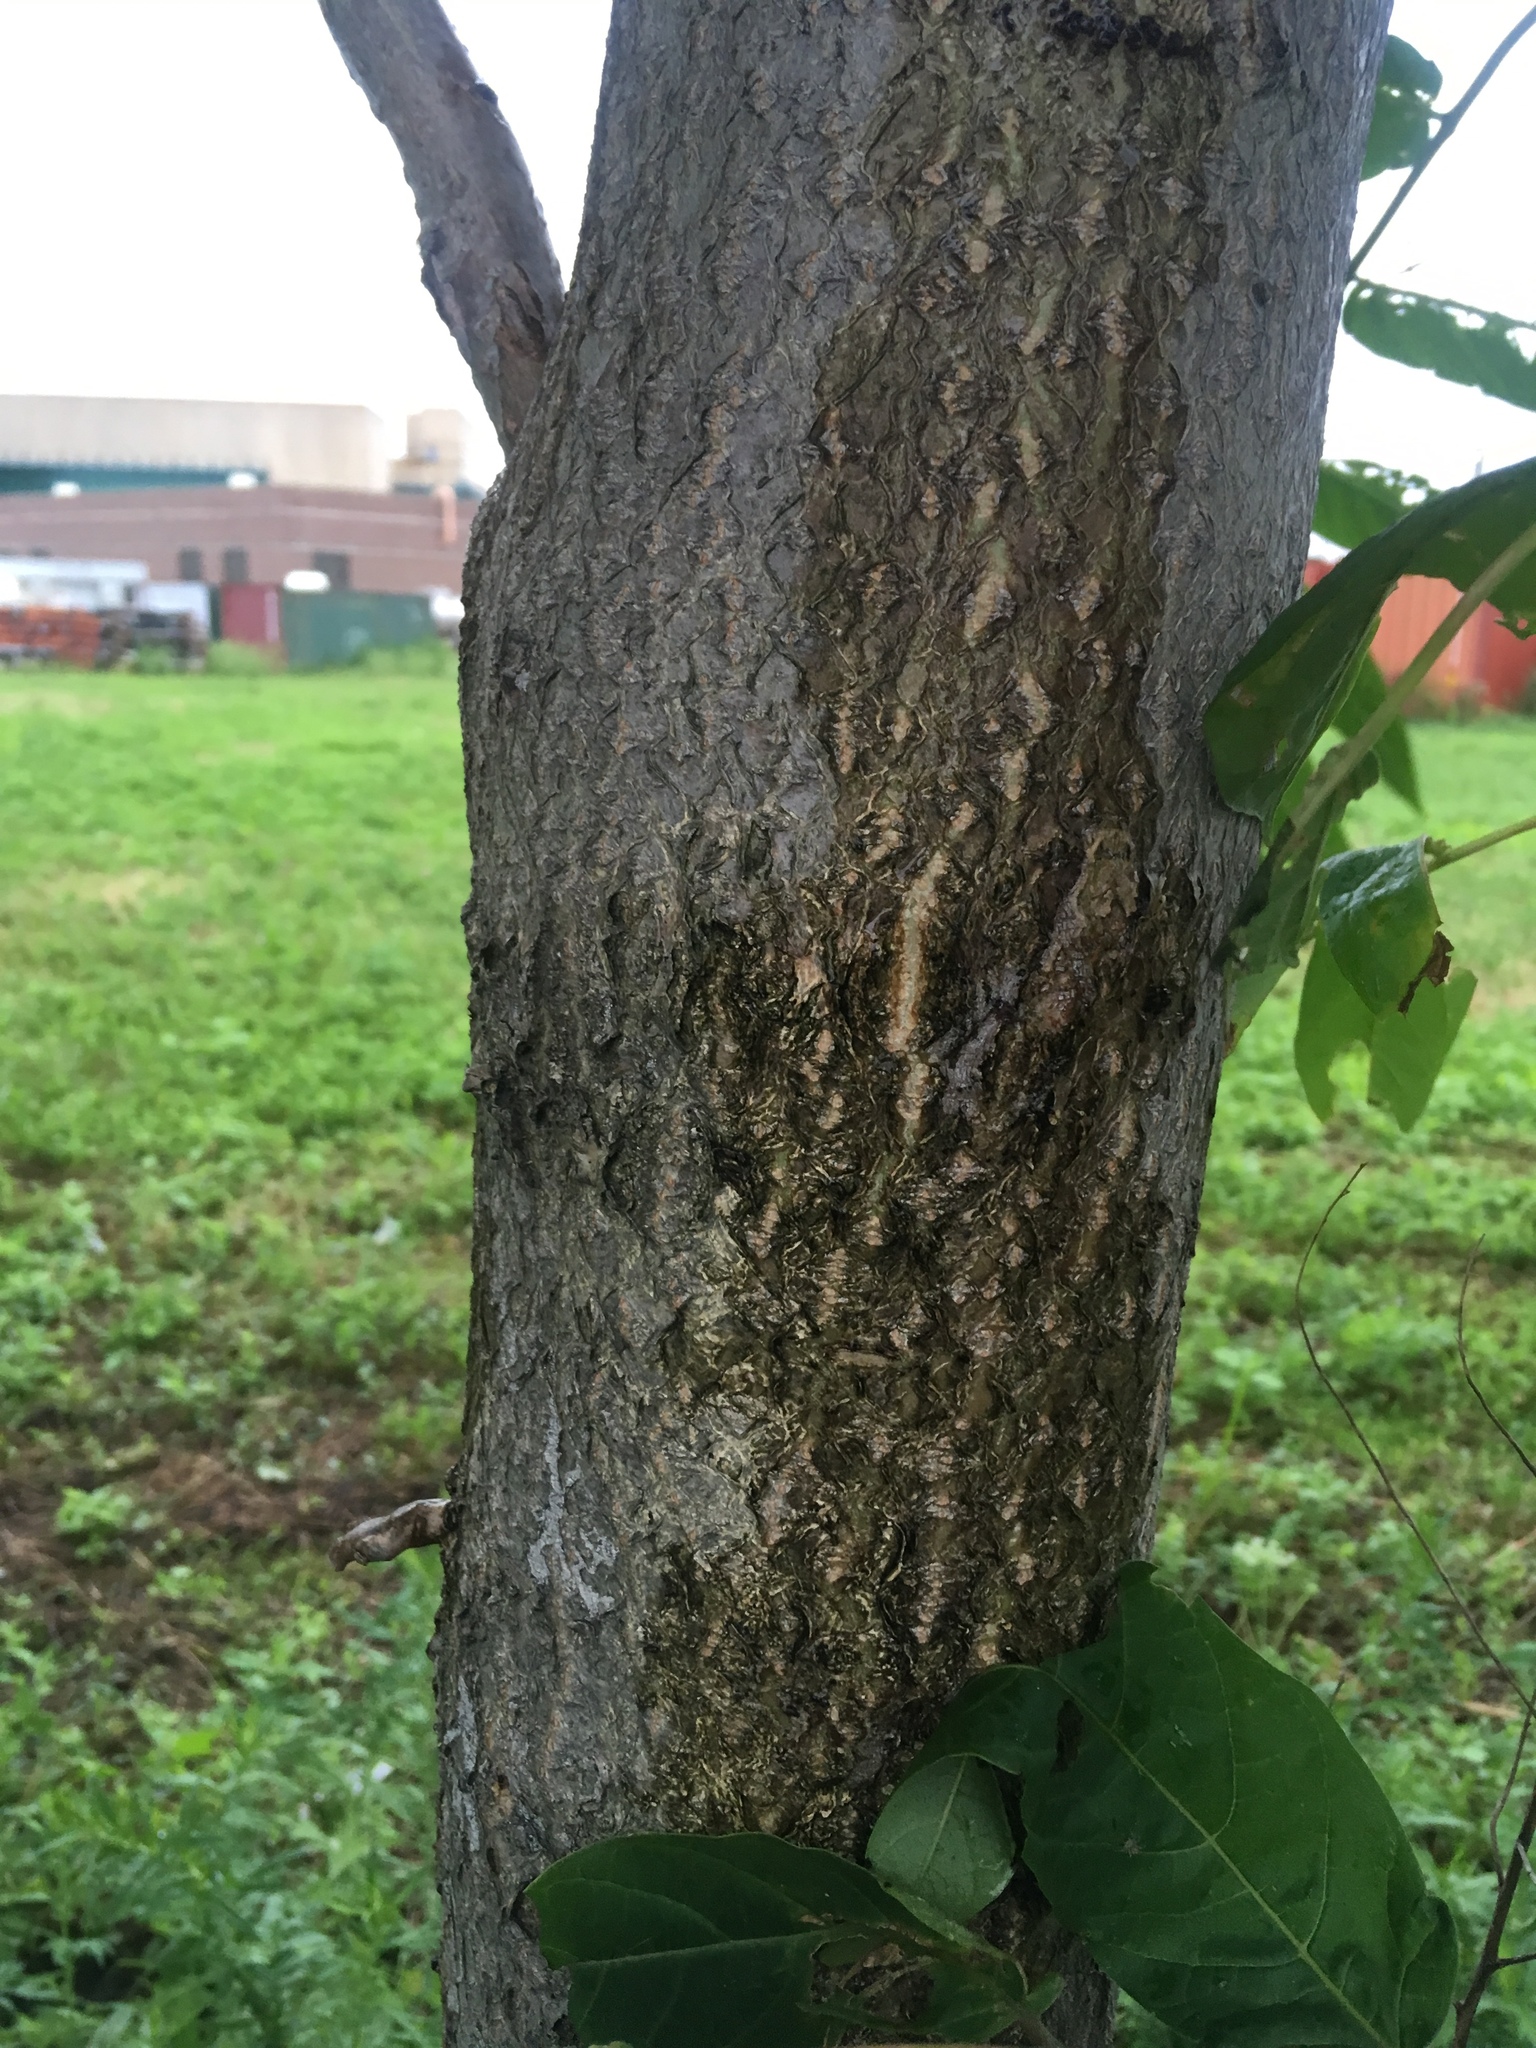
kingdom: Plantae
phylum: Tracheophyta
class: Magnoliopsida
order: Sapindales
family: Simaroubaceae
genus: Ailanthus
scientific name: Ailanthus altissima
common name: Tree-of-heaven
